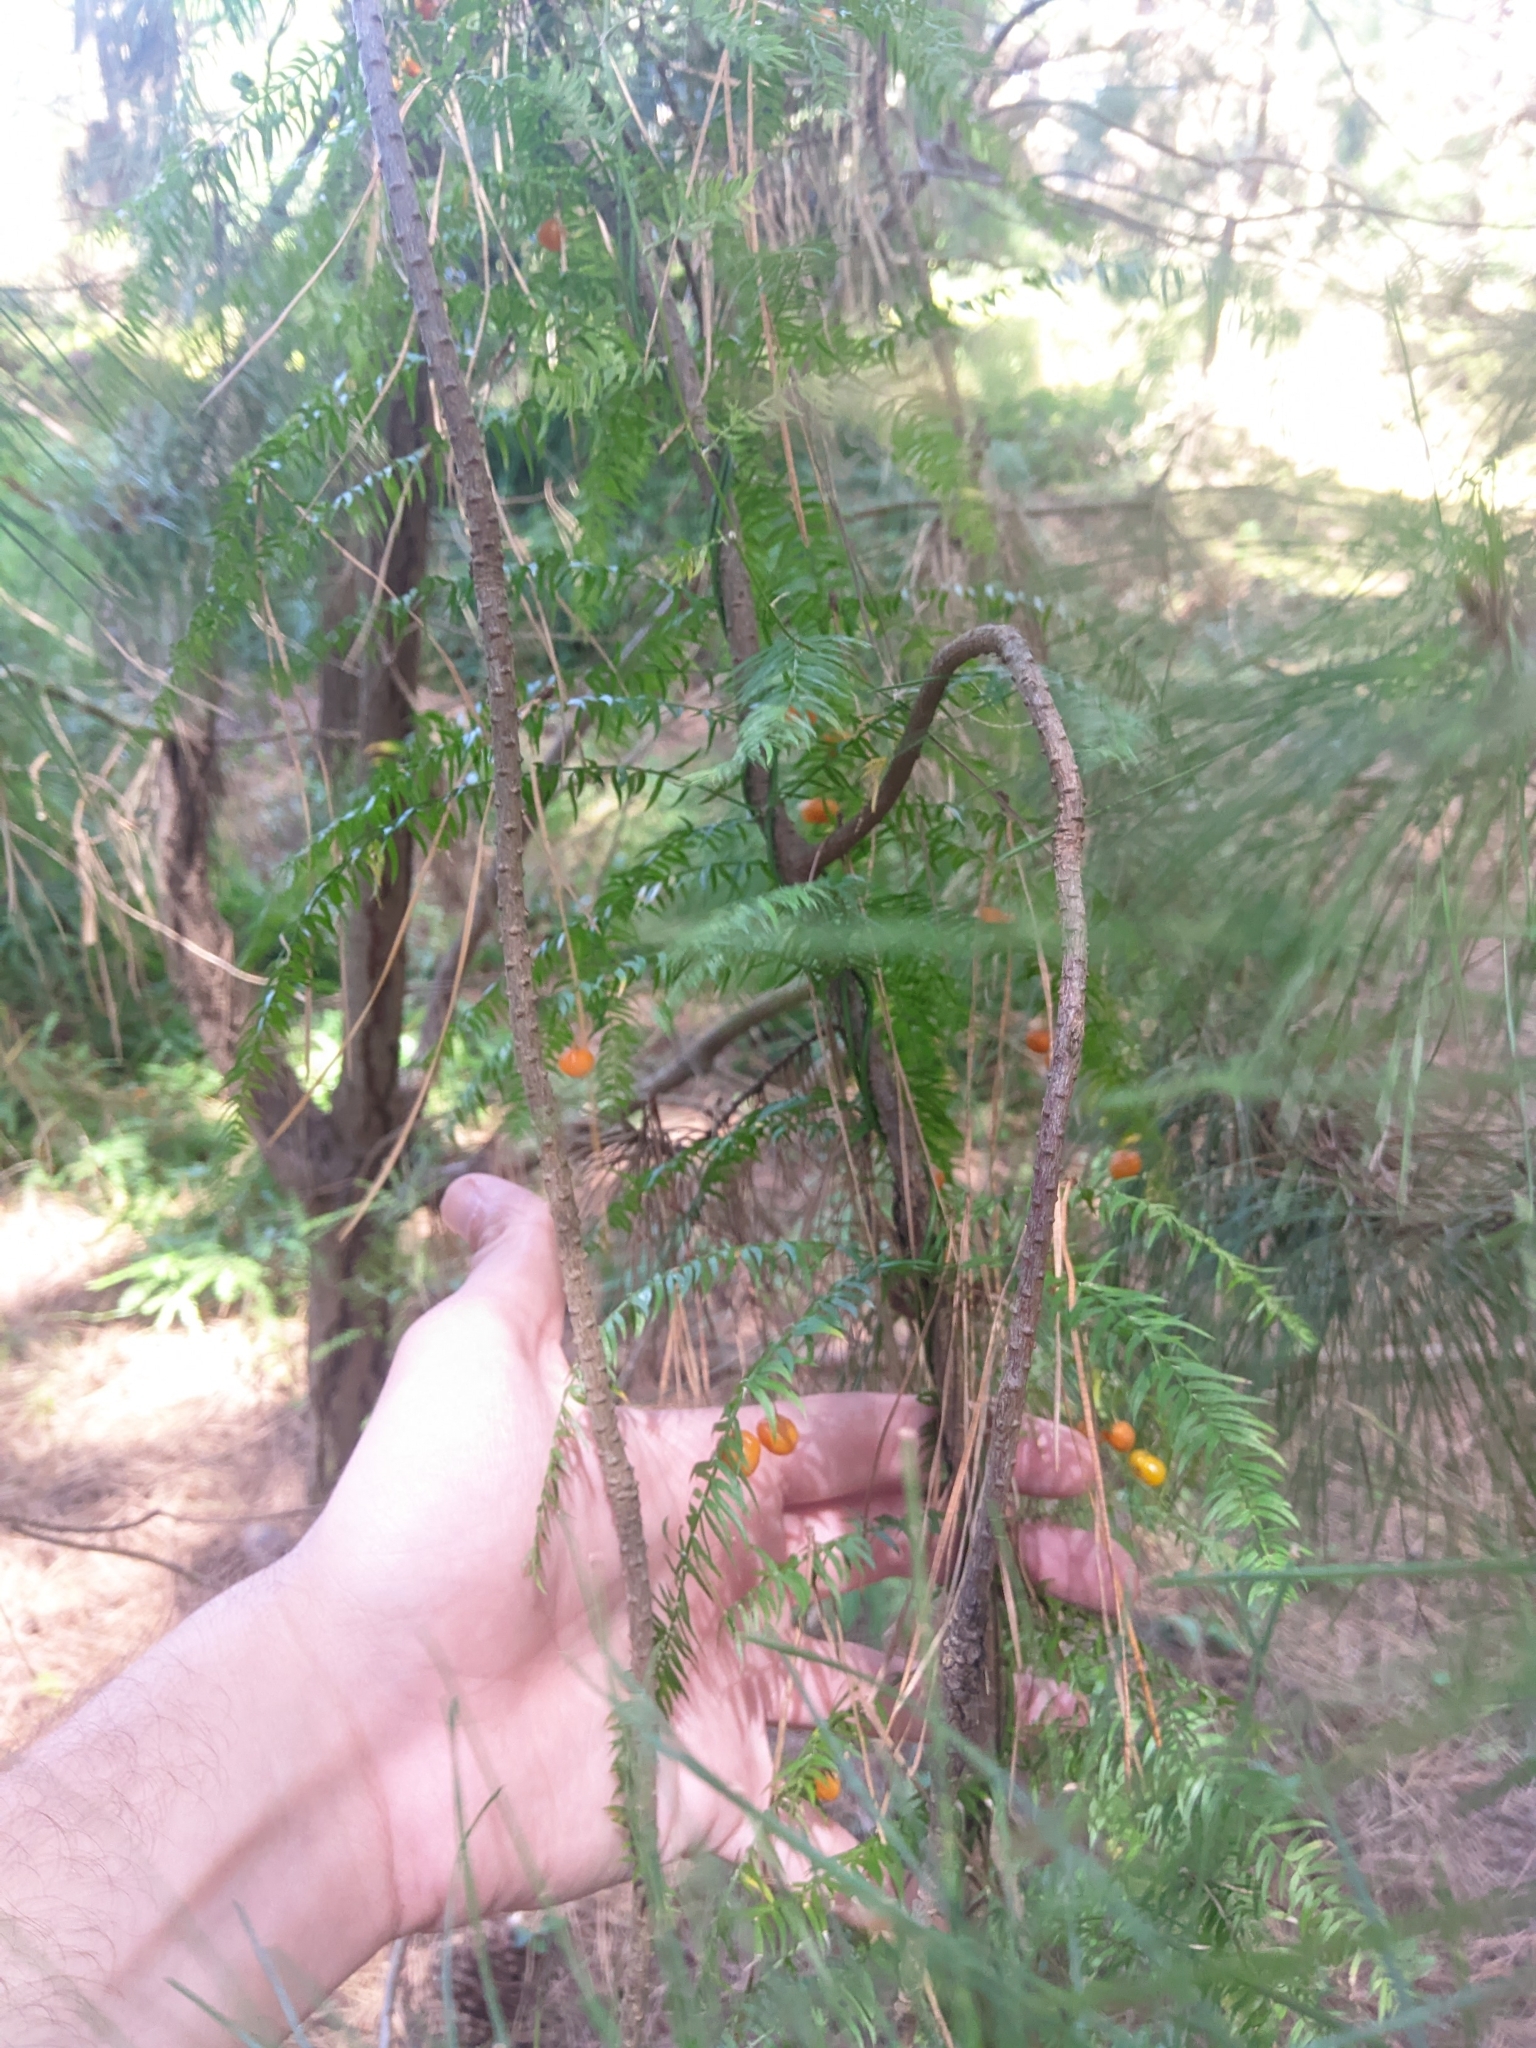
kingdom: Plantae
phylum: Tracheophyta
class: Liliopsida
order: Asparagales
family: Asparagaceae
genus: Asparagus
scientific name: Asparagus scandens
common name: Asparagus-fern
